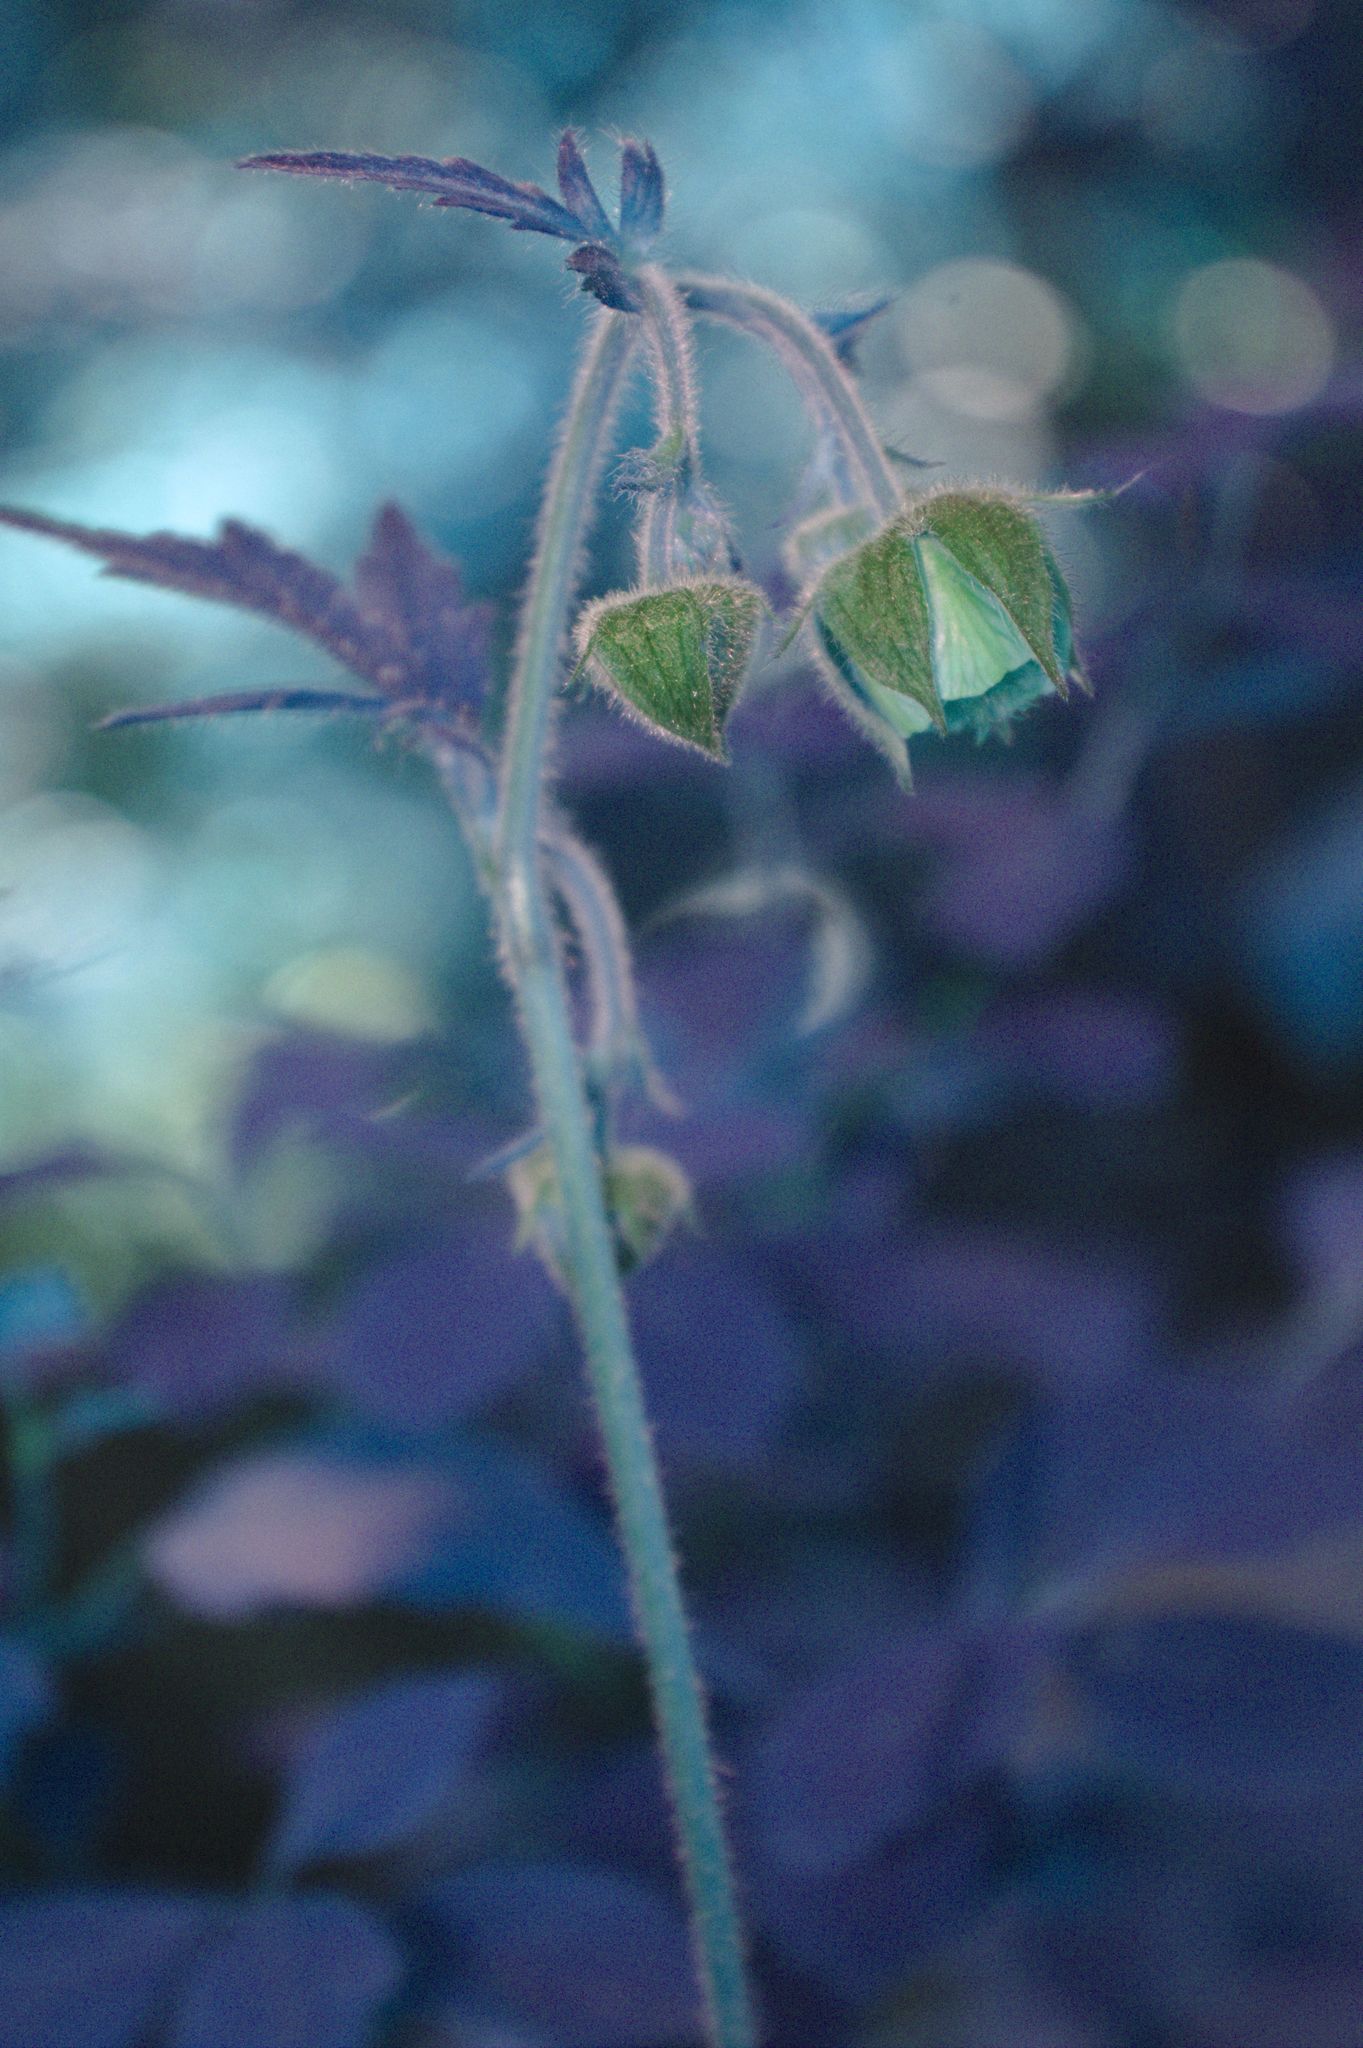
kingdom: Plantae
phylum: Tracheophyta
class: Magnoliopsida
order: Rosales
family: Rosaceae
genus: Geum
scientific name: Geum rivale
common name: Water avens
